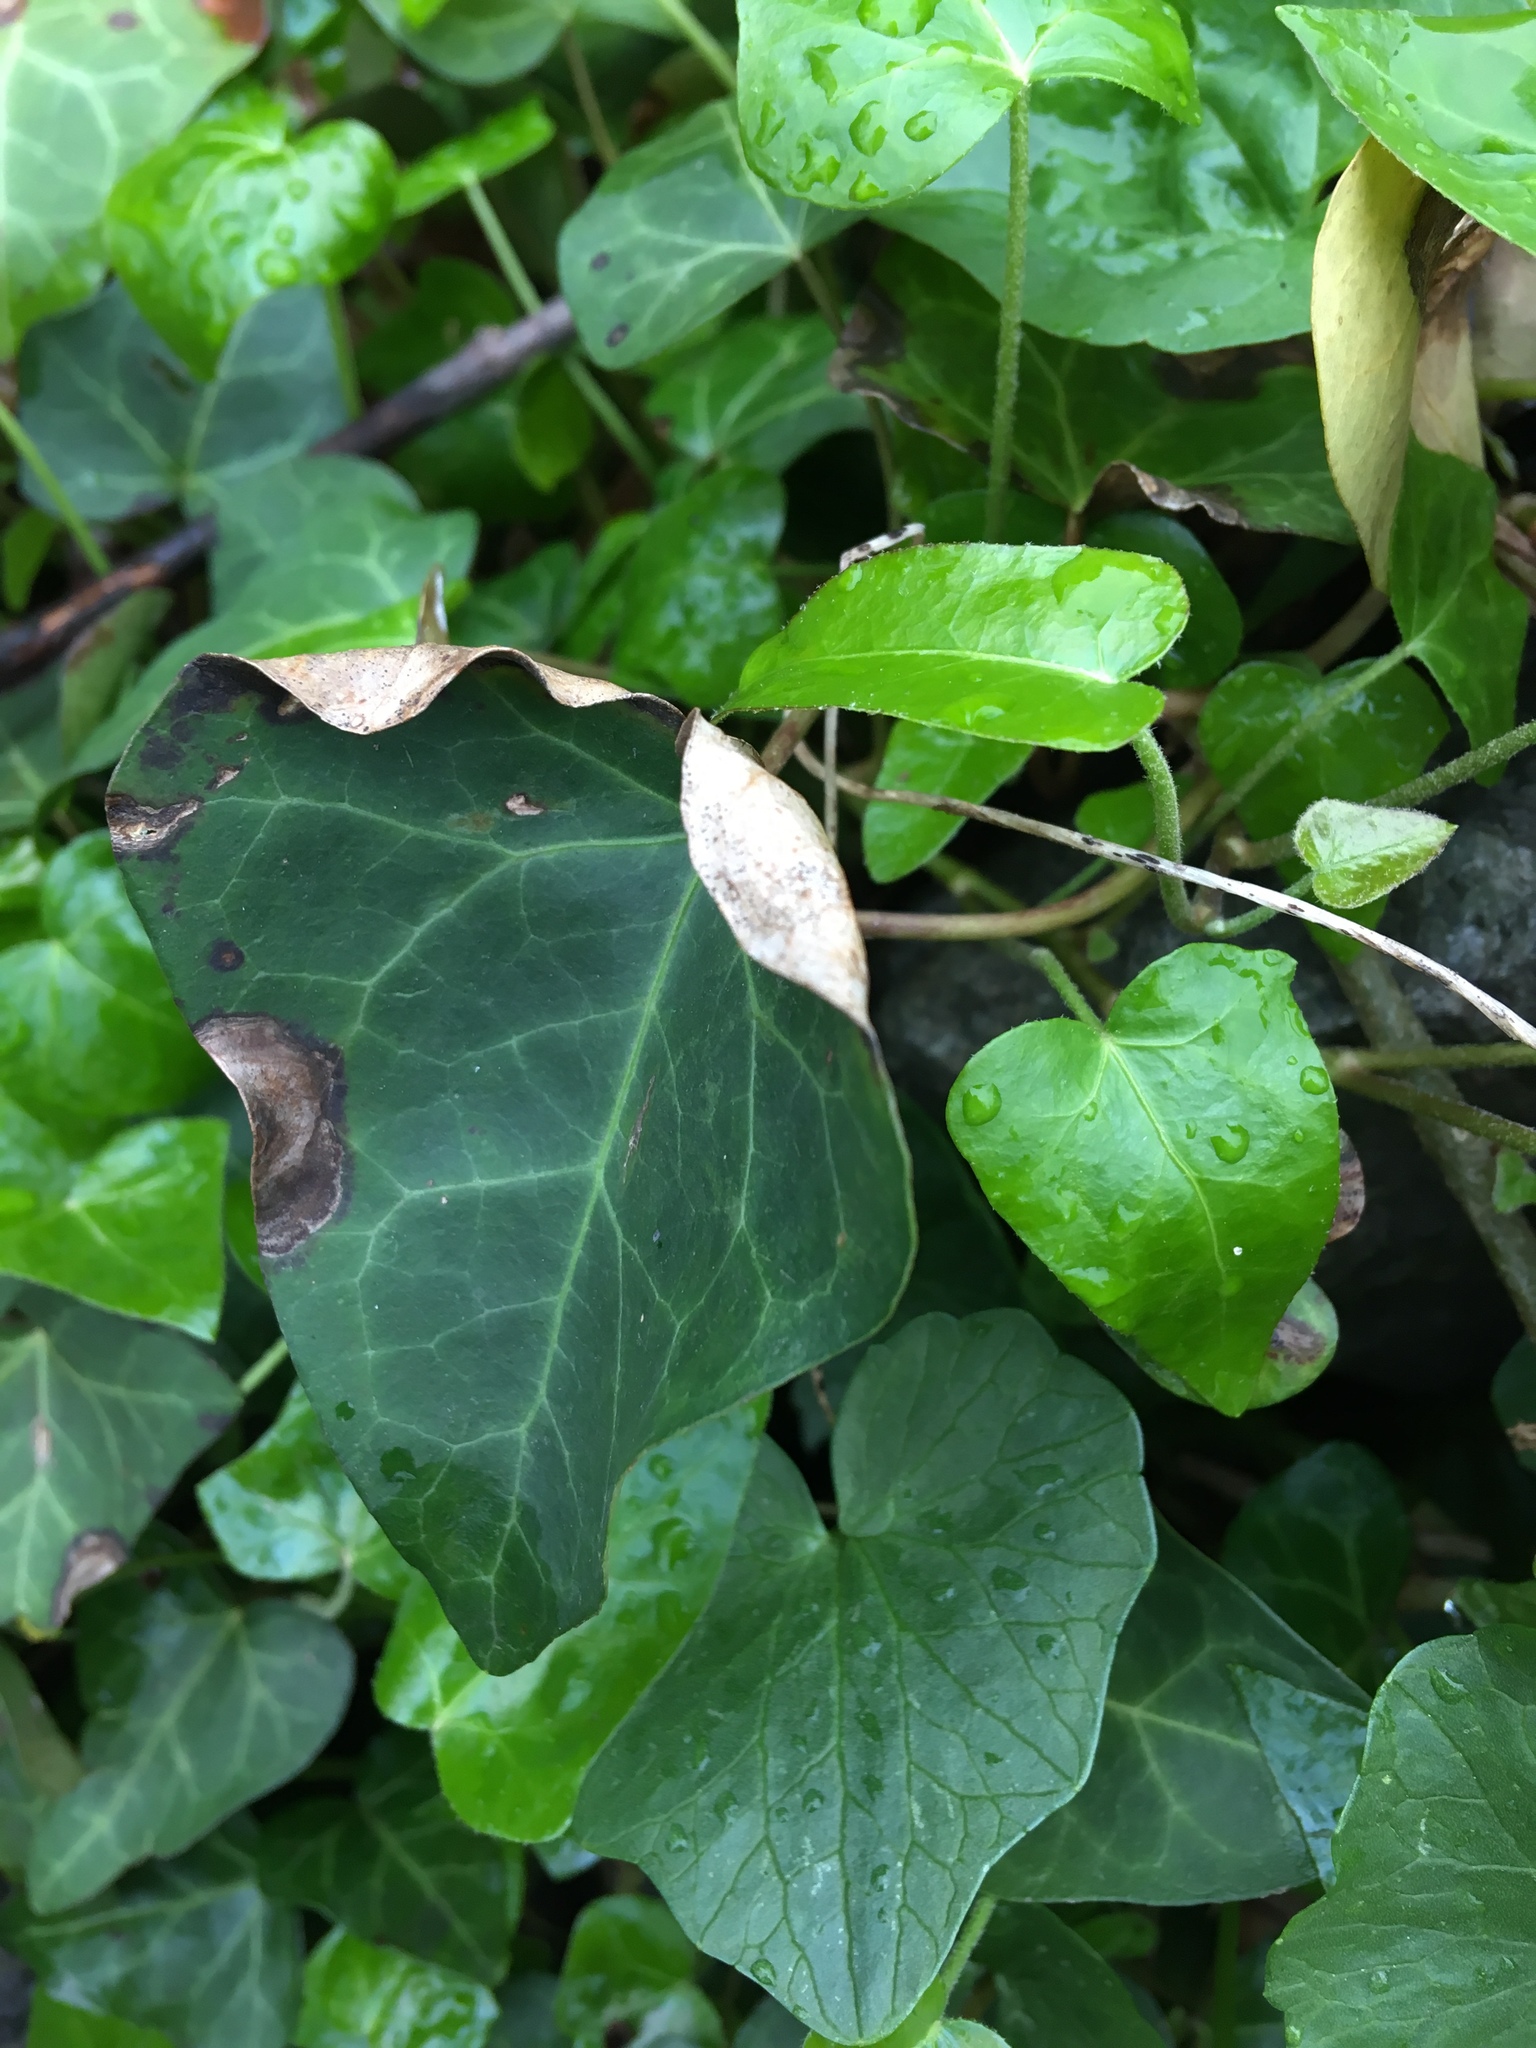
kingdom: Plantae
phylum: Tracheophyta
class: Magnoliopsida
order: Apiales
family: Araliaceae
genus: Hedera
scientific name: Hedera helix
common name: Ivy
